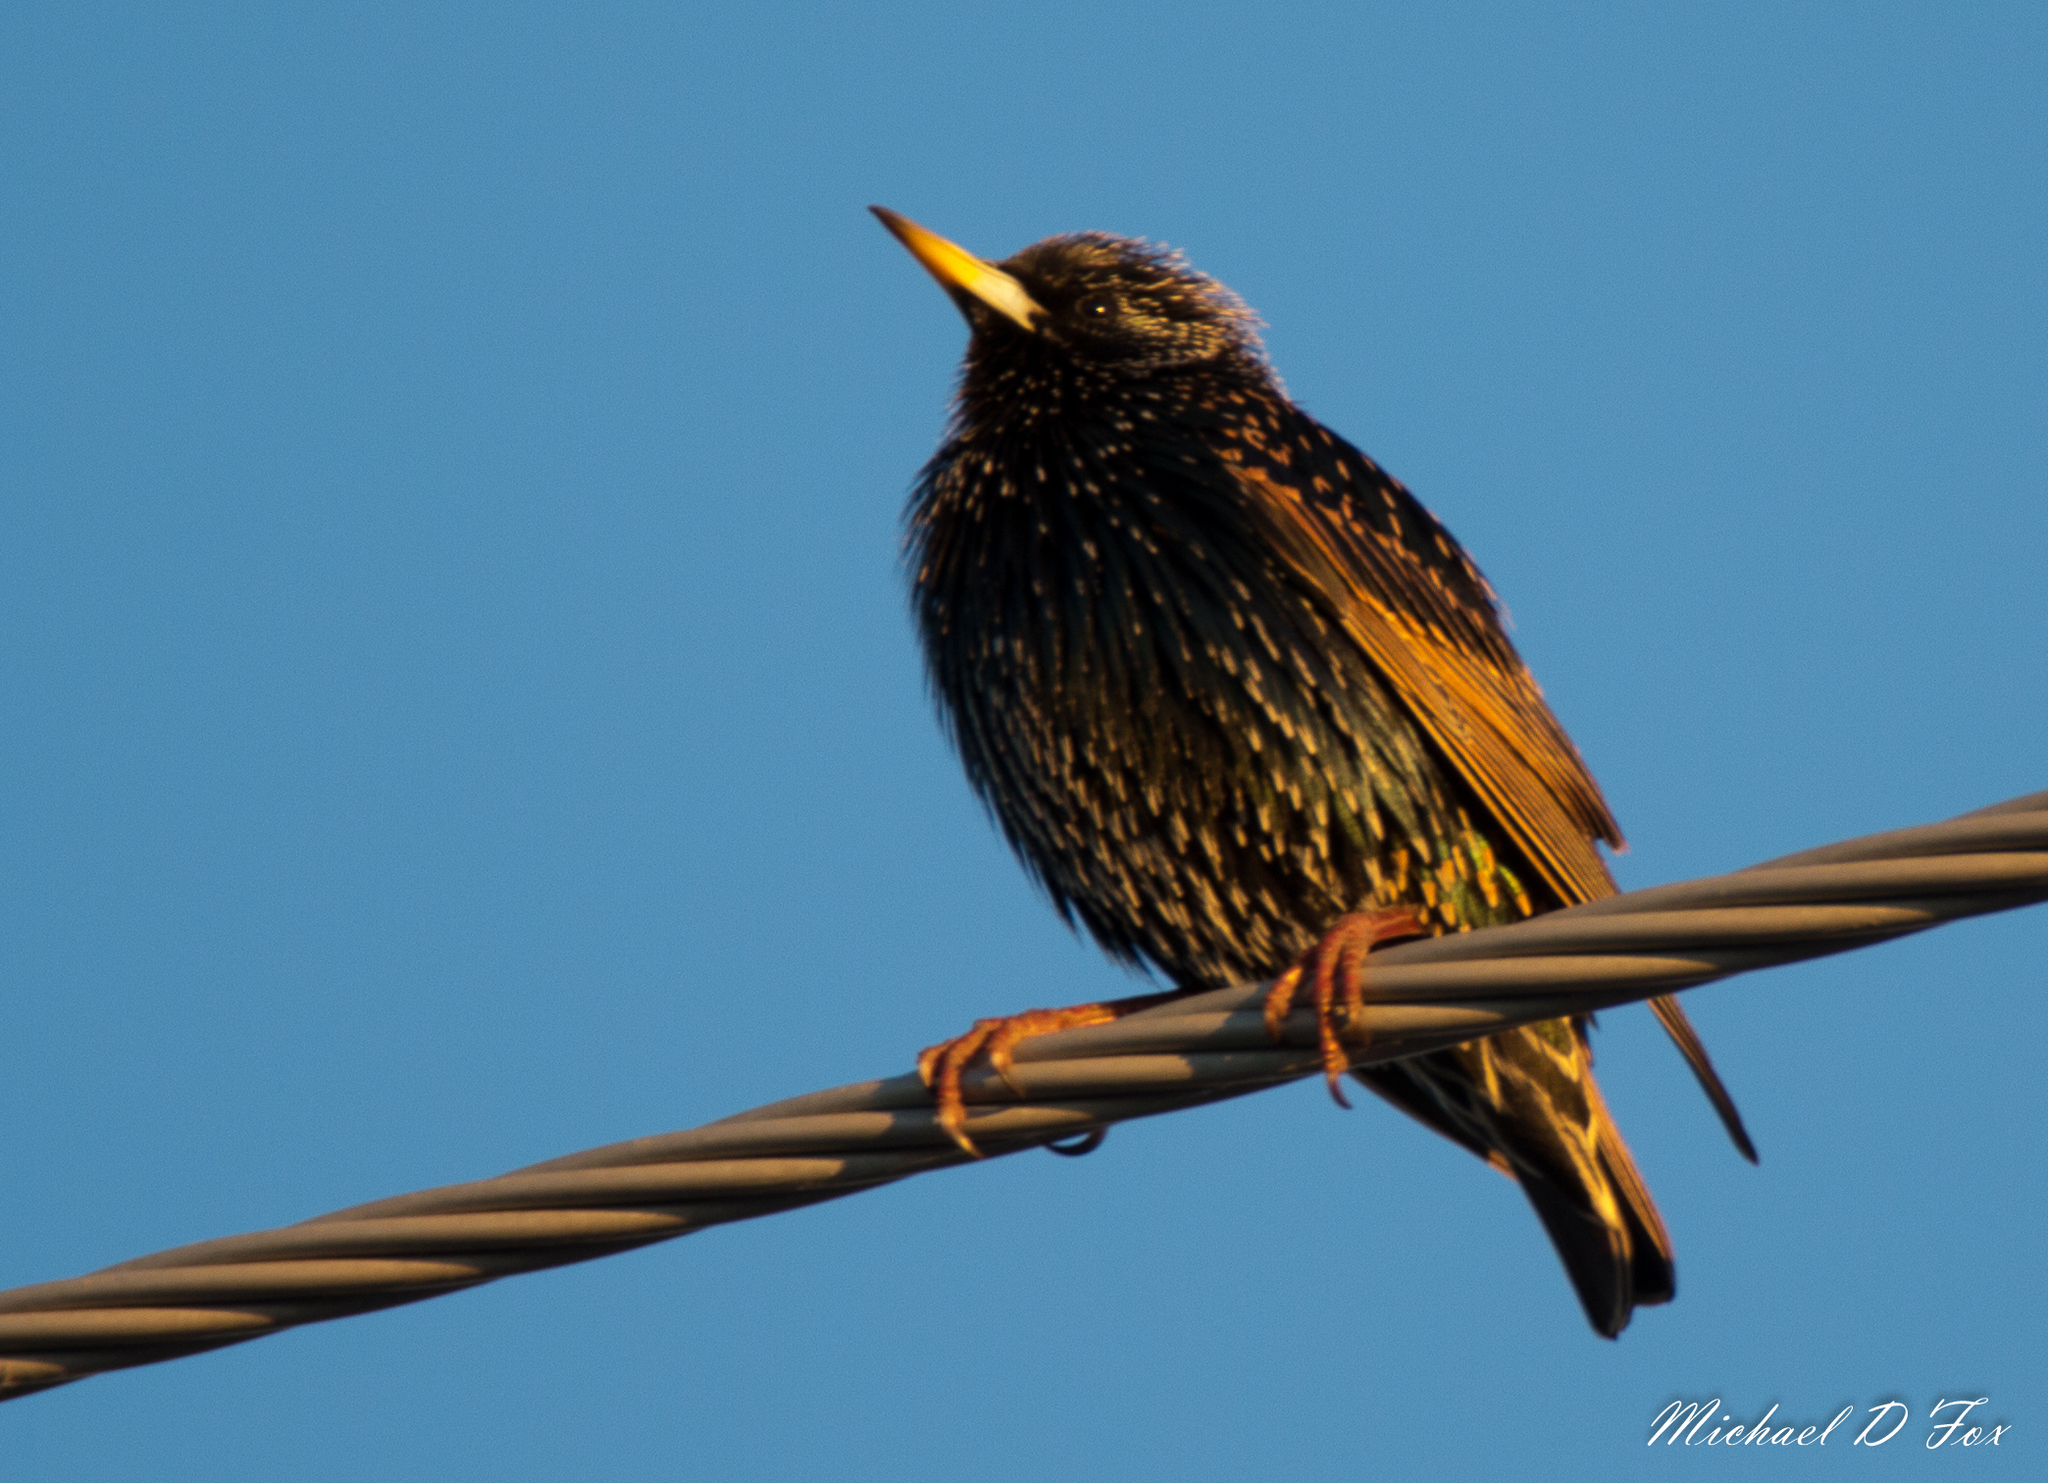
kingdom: Animalia
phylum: Chordata
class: Aves
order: Passeriformes
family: Sturnidae
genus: Sturnus
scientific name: Sturnus vulgaris
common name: Common starling
